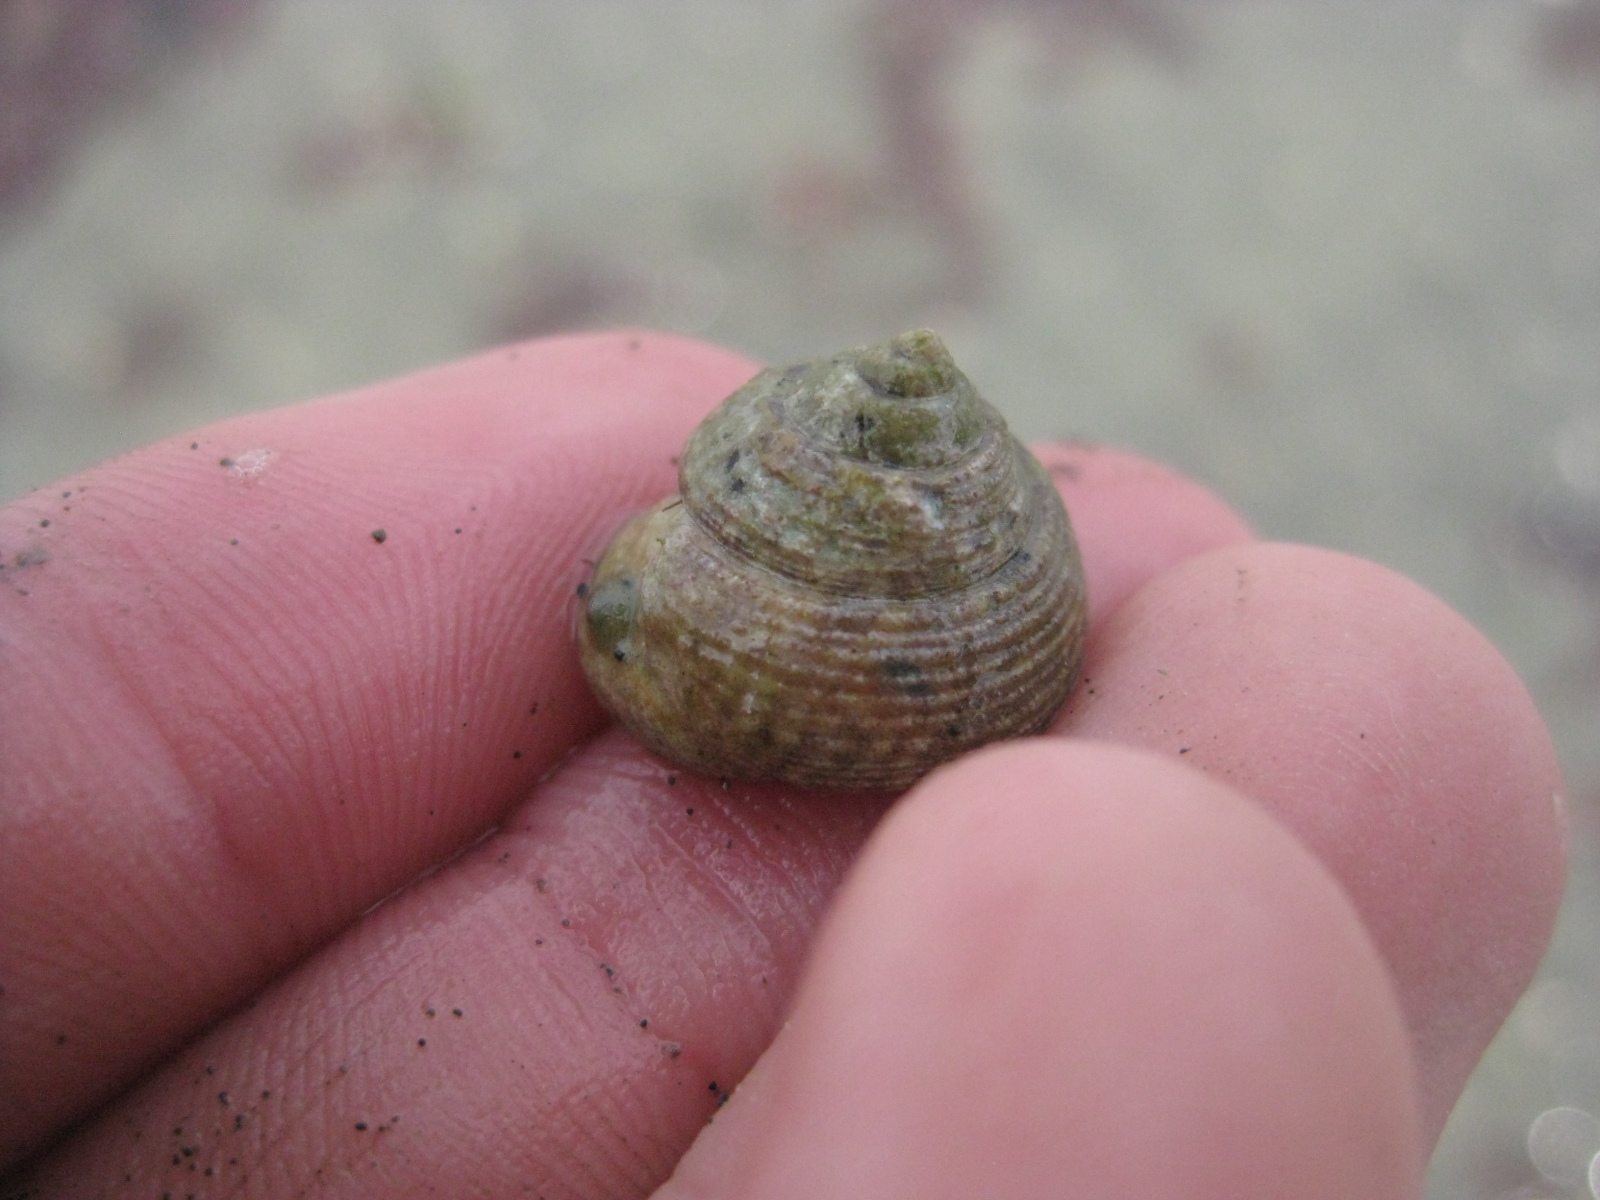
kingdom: Animalia
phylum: Mollusca
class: Gastropoda
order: Trochida
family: Trochidae
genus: Coelotrochus
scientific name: Coelotrochus tiaratus
